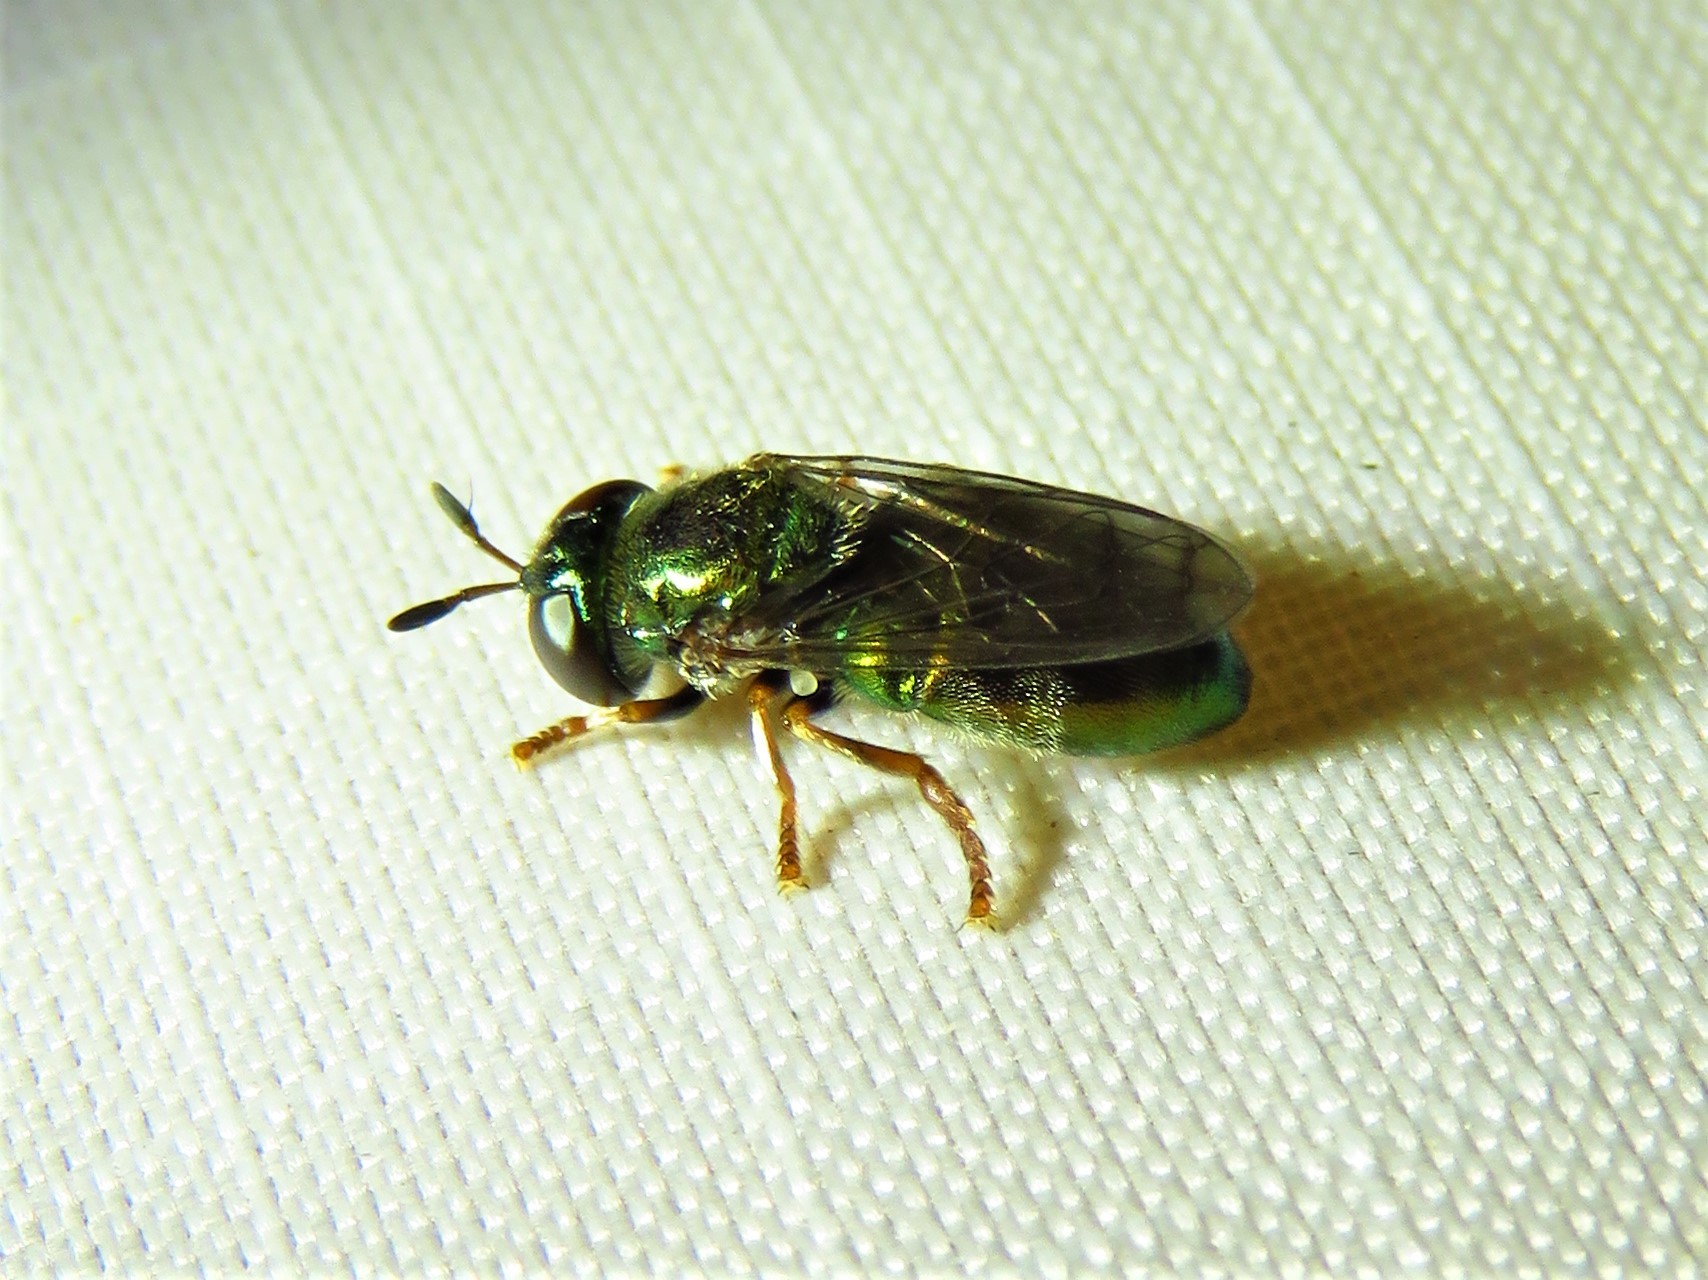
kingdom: Animalia
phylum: Arthropoda
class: Insecta
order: Diptera
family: Syrphidae
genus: Laetodon
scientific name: Laetodon laetus
